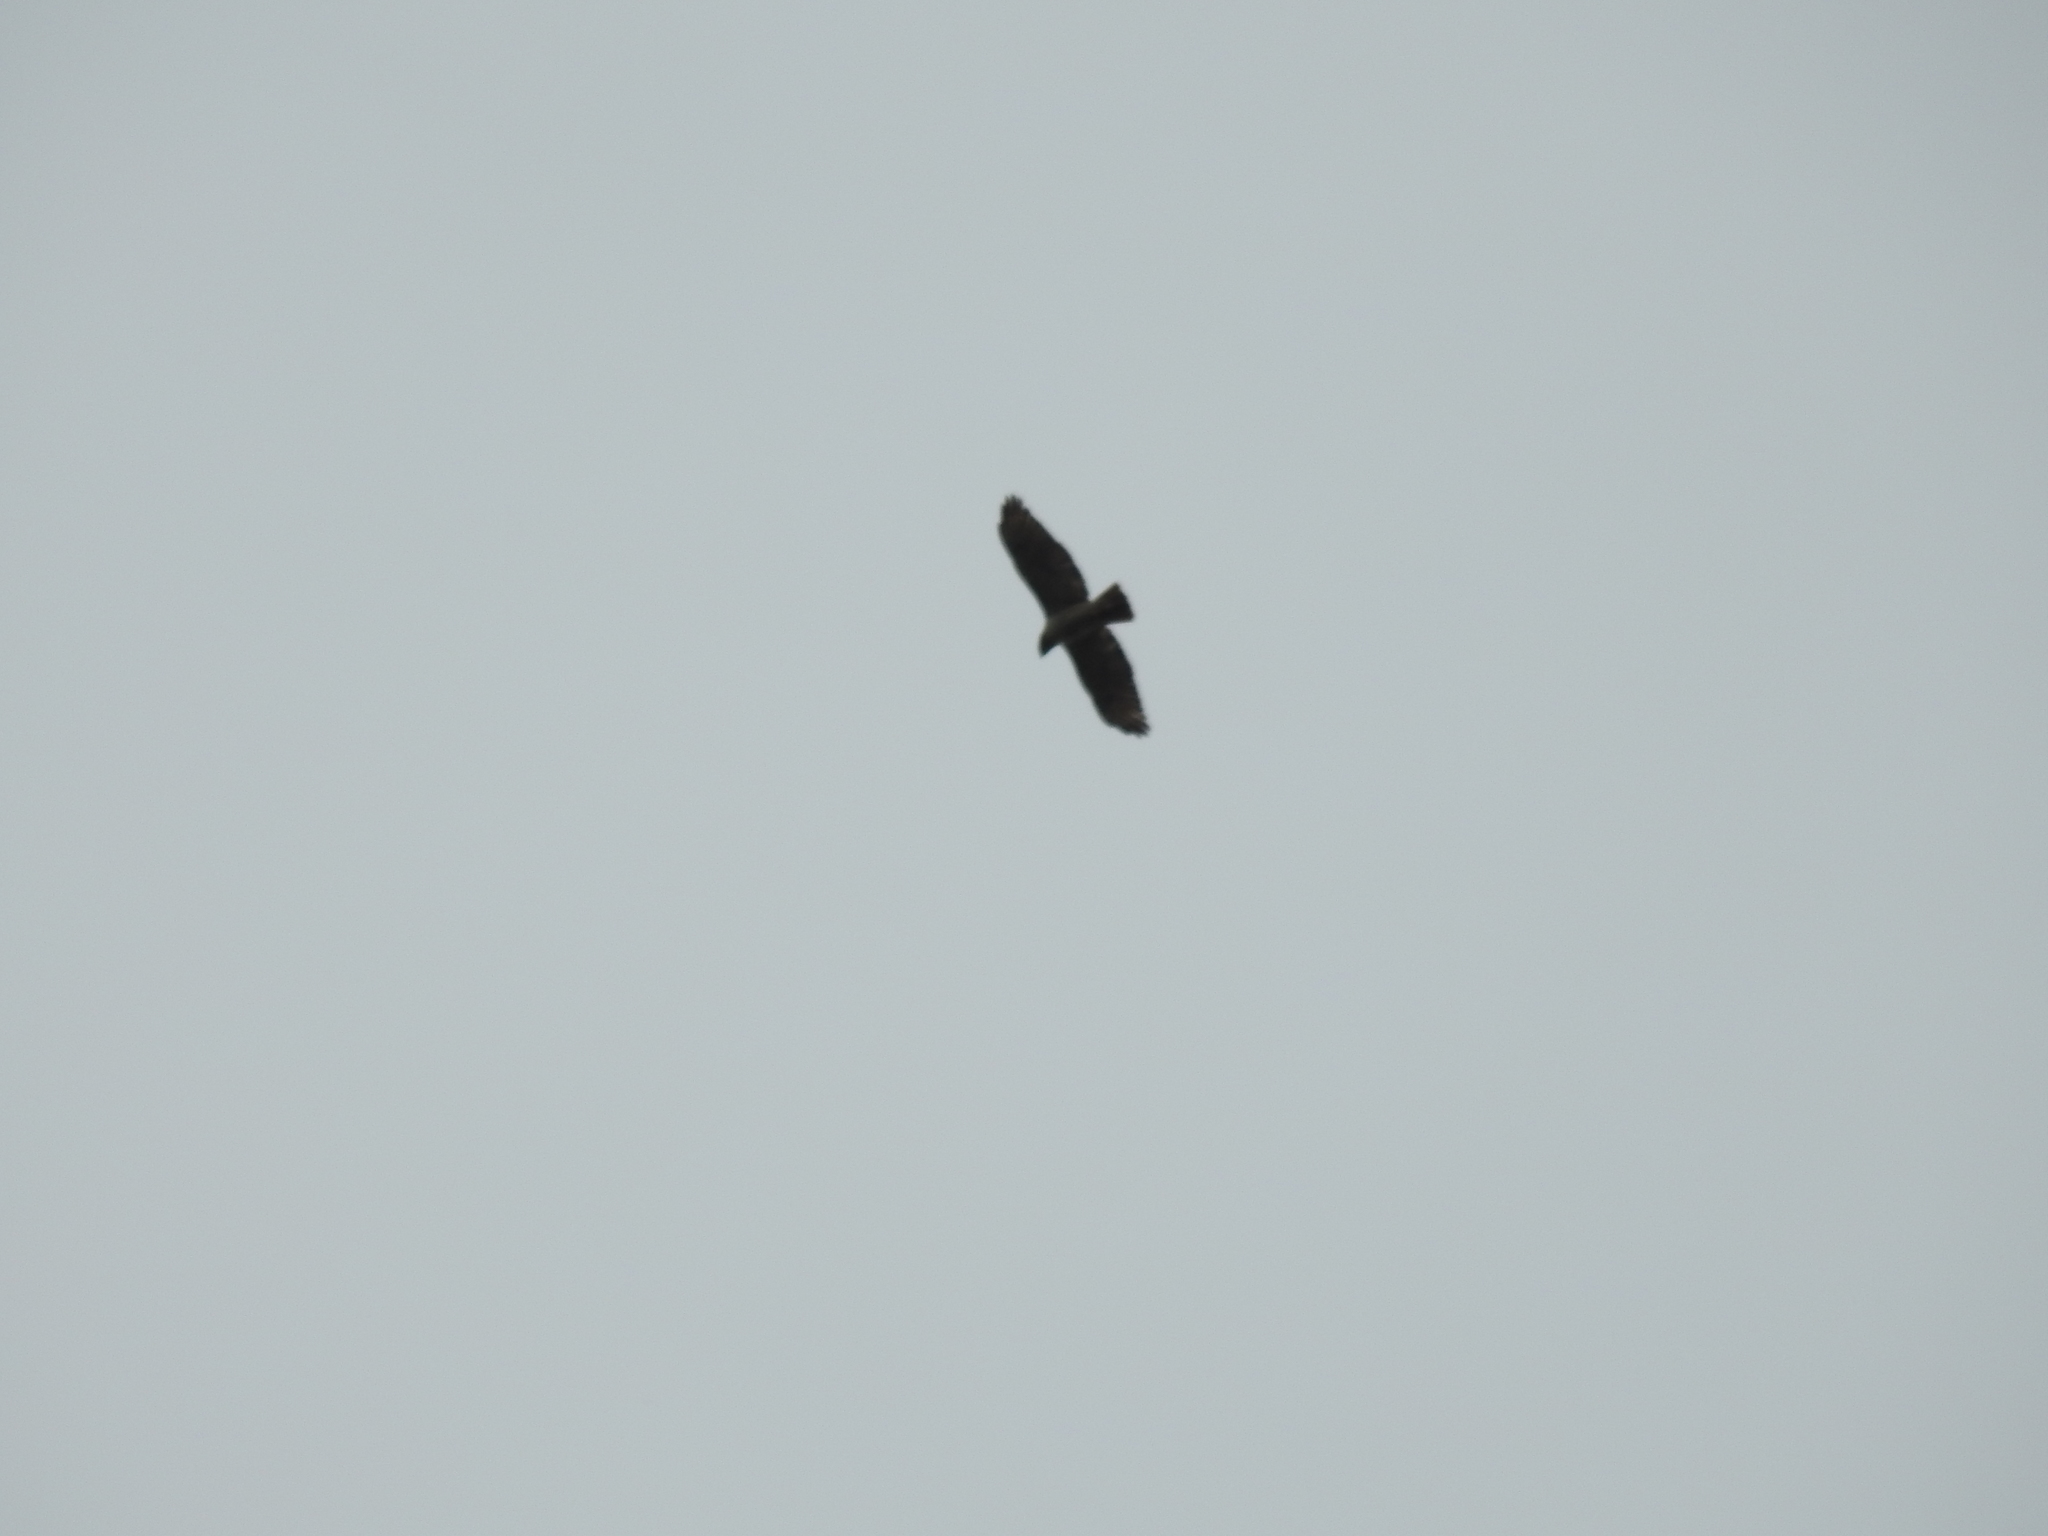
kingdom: Animalia
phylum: Chordata
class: Aves
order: Accipitriformes
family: Accipitridae
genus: Buteo
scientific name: Buteo jamaicensis
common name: Red-tailed hawk
